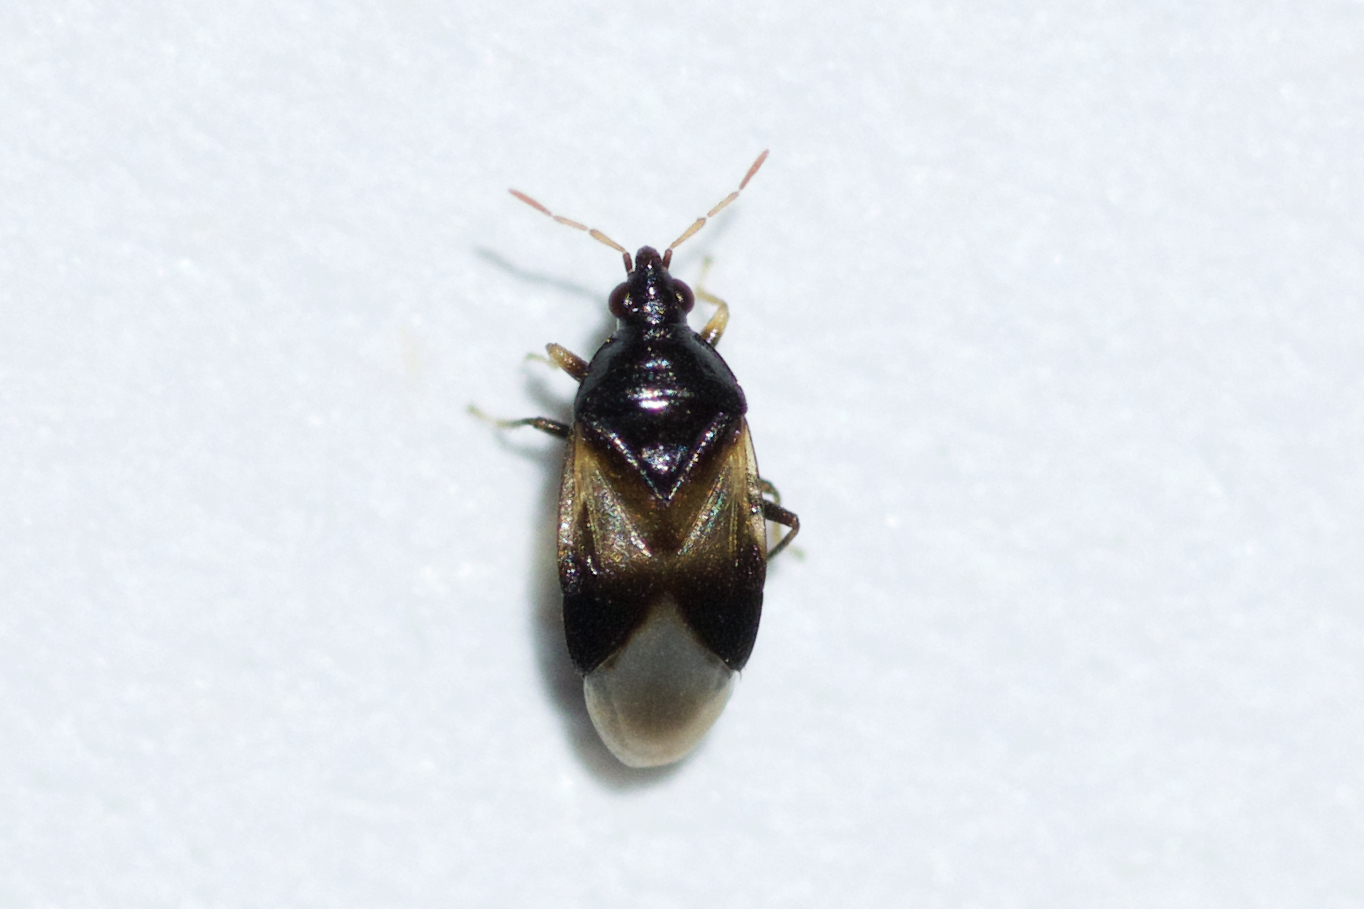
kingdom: Animalia
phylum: Arthropoda
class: Insecta
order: Hemiptera
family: Anthocoridae
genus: Orius
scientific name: Orius insidiosus
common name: Insidious flower bug
